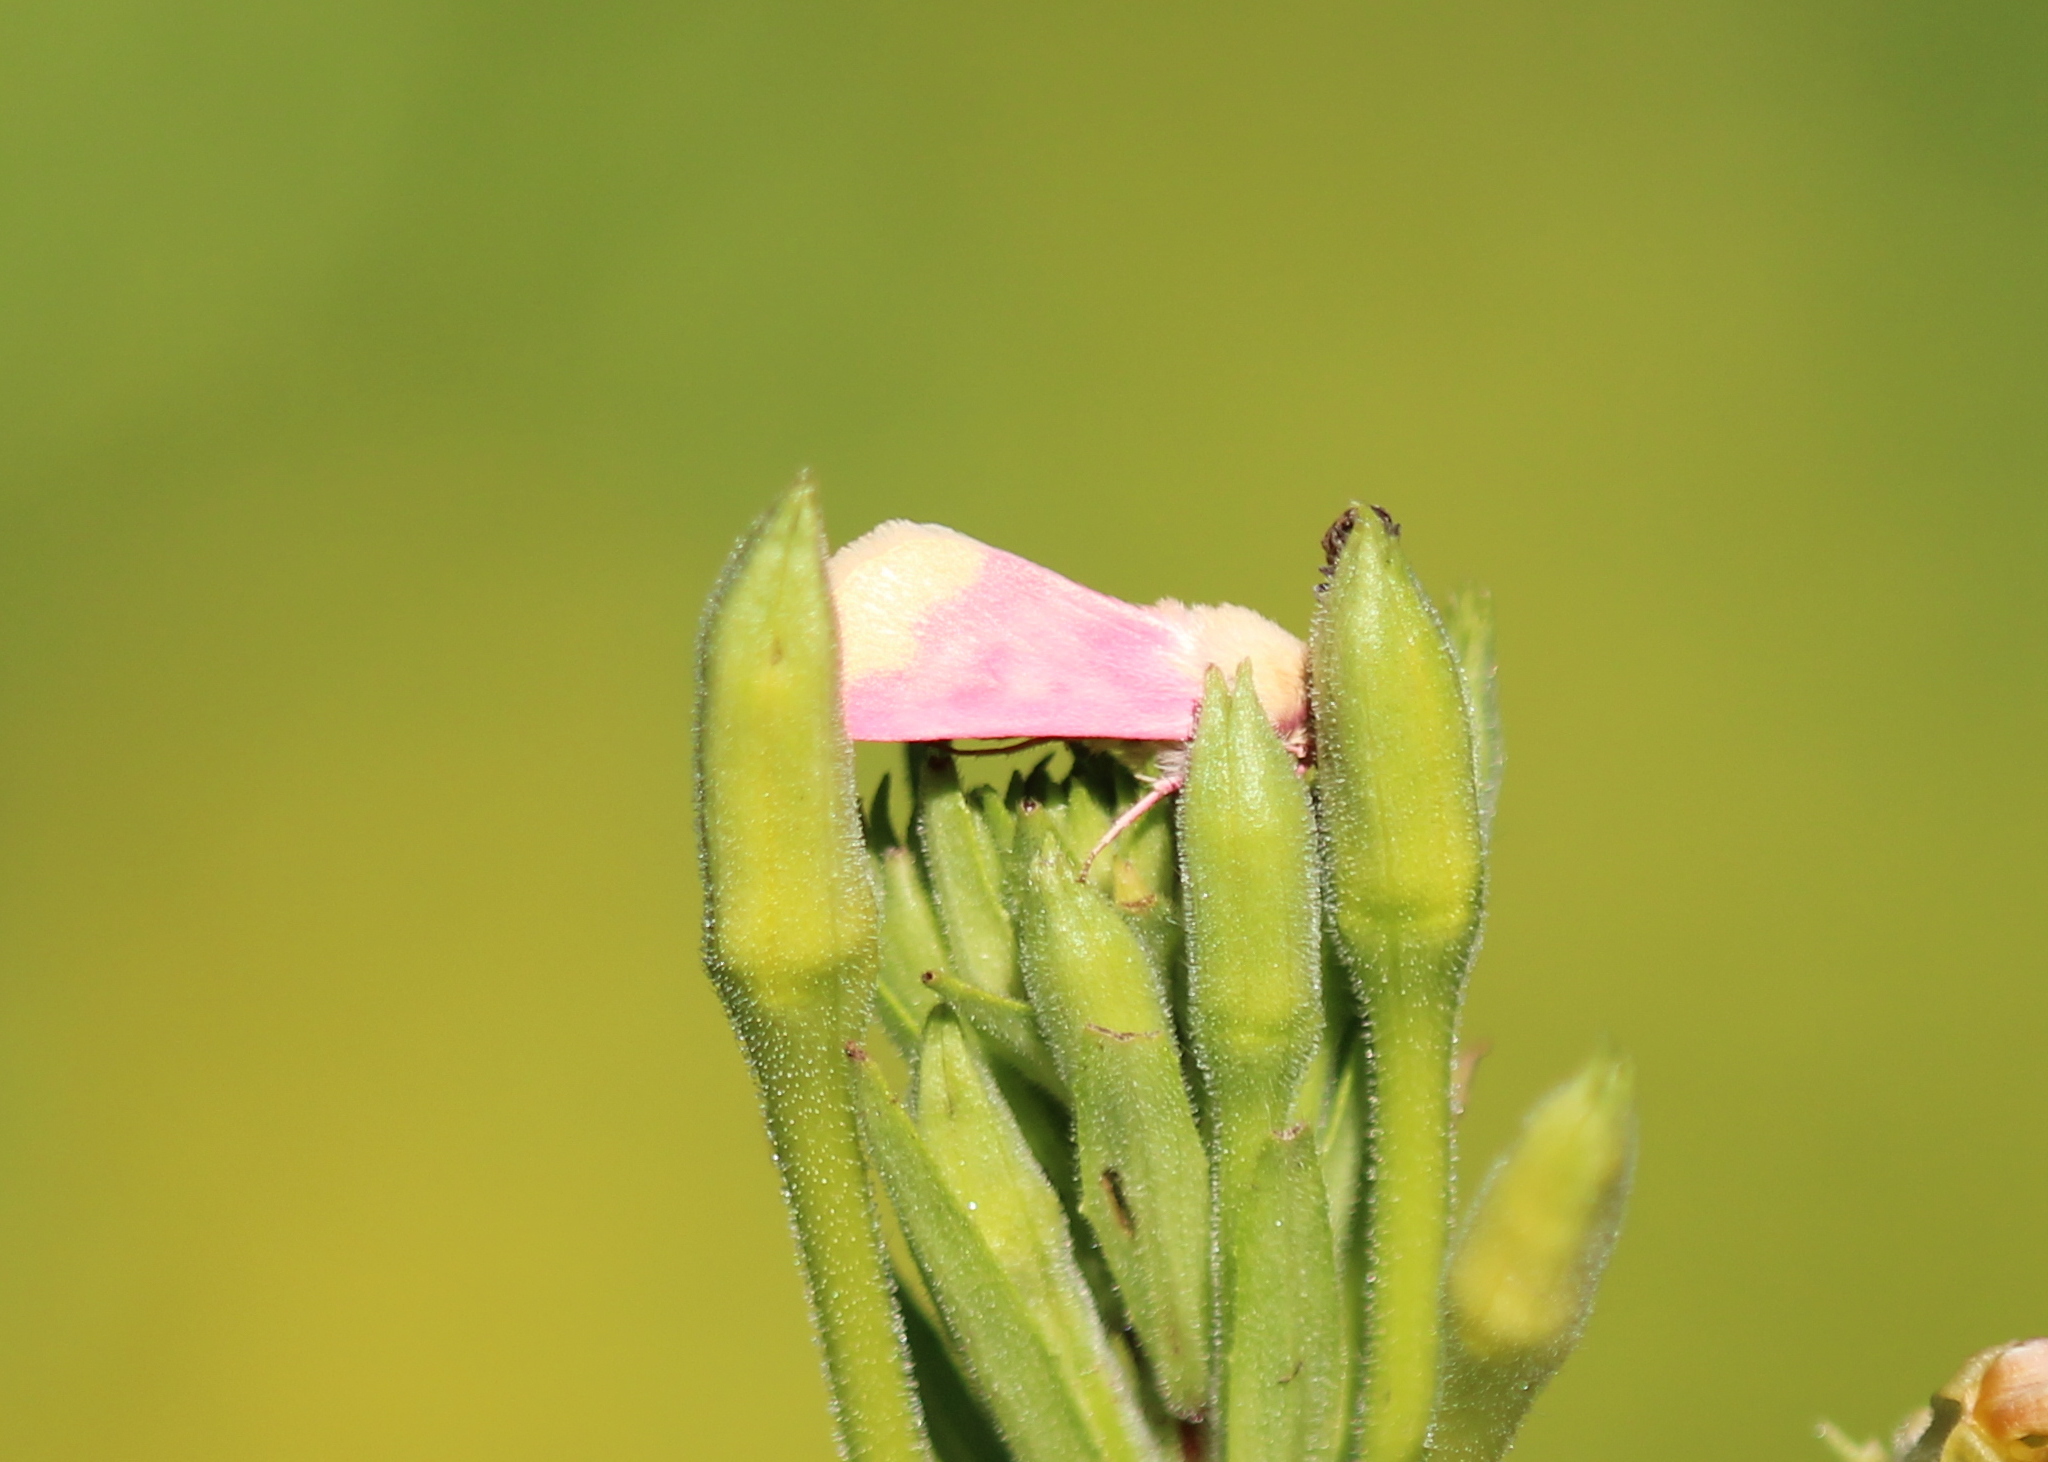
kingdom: Animalia
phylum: Arthropoda
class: Insecta
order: Lepidoptera
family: Noctuidae
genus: Schinia
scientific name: Schinia florida
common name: Primrose moth
